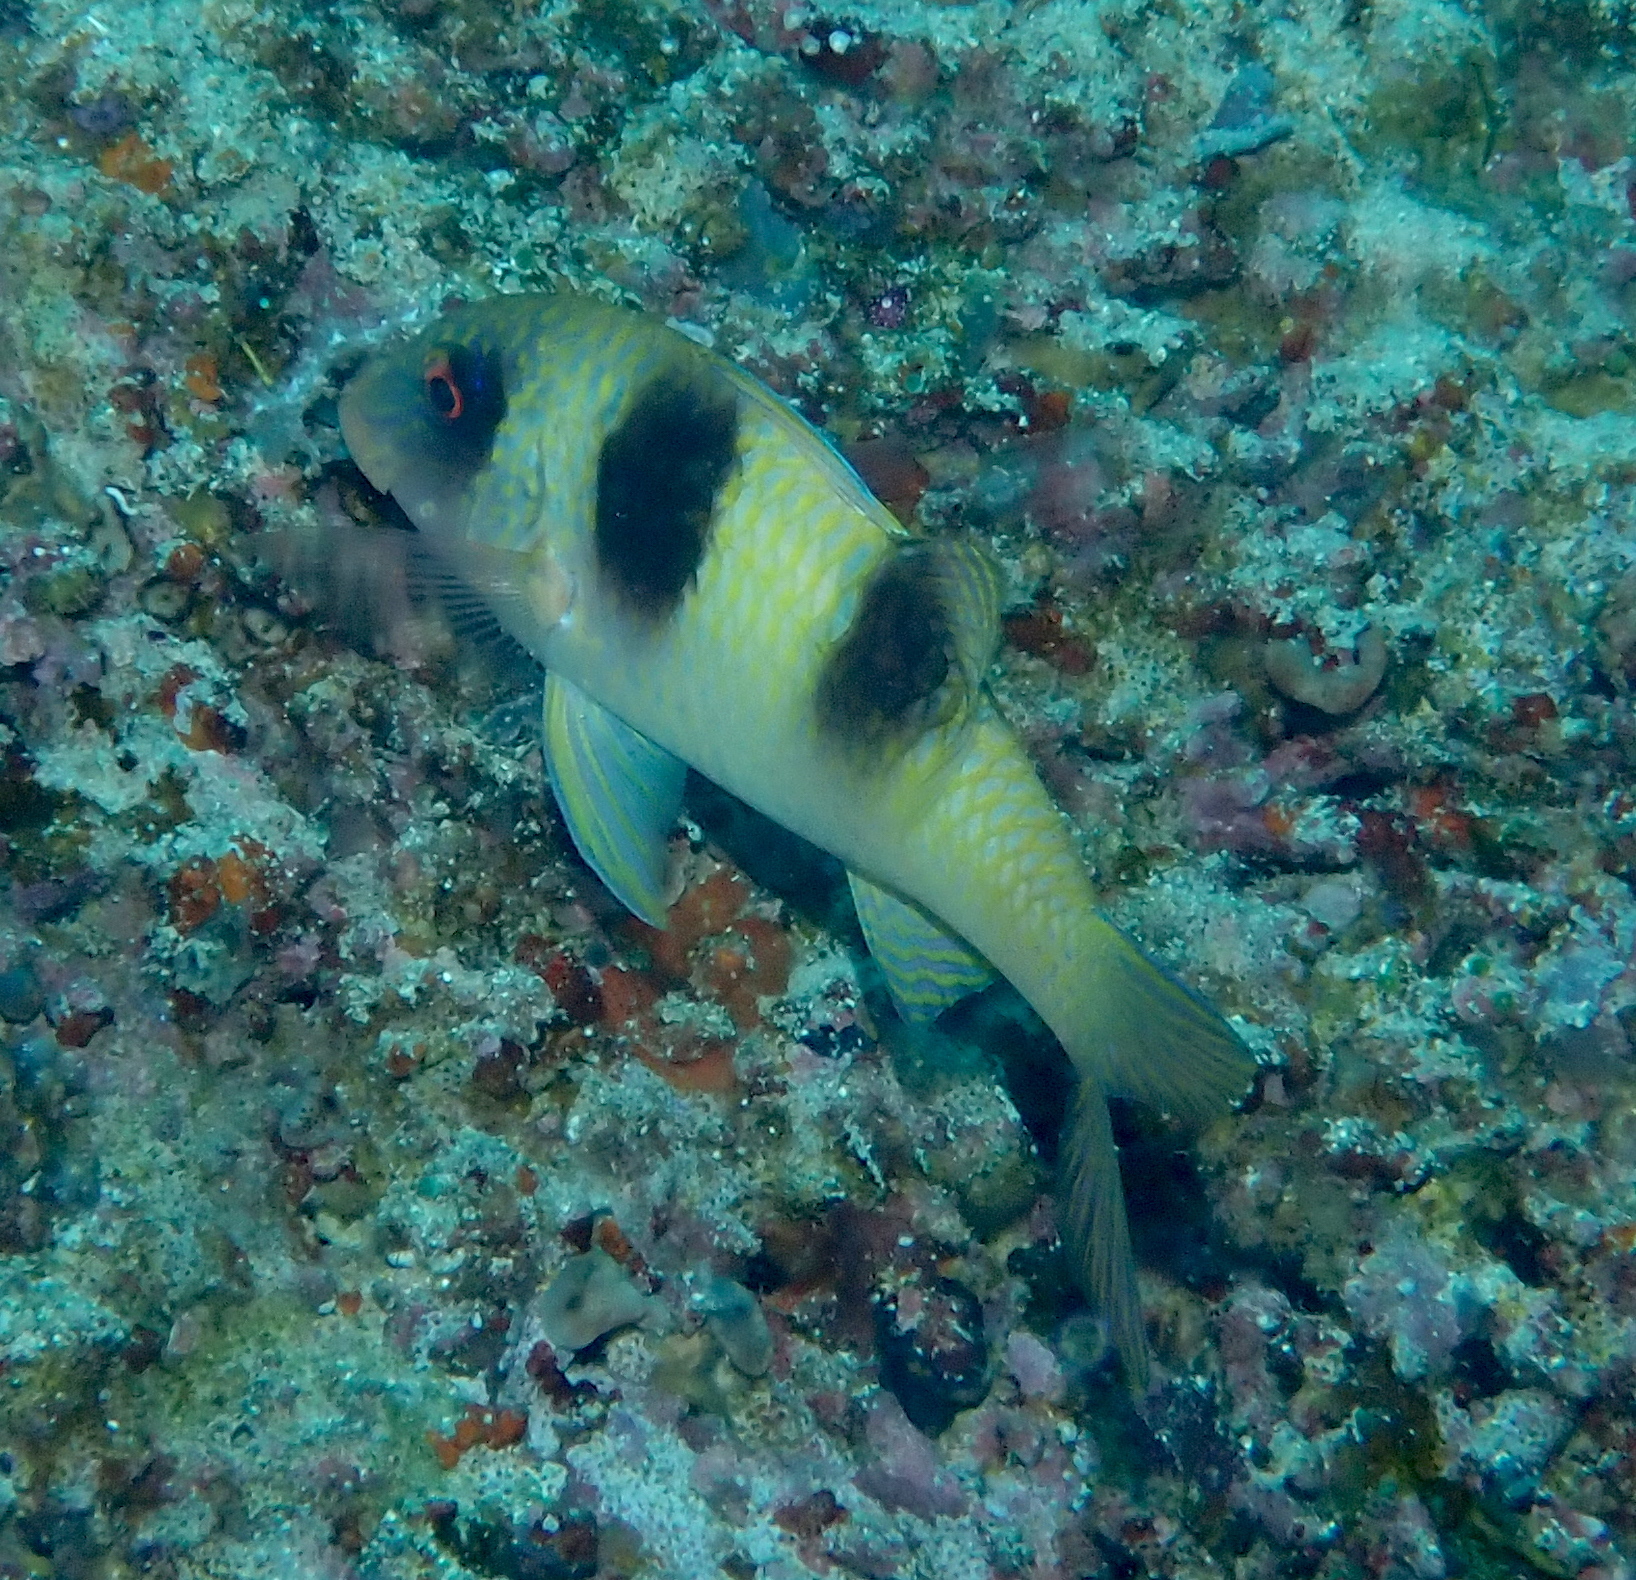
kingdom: Animalia
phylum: Chordata
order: Perciformes
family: Mullidae
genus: Parupeneus
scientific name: Parupeneus crassilabris
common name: Doublebar goatfish
